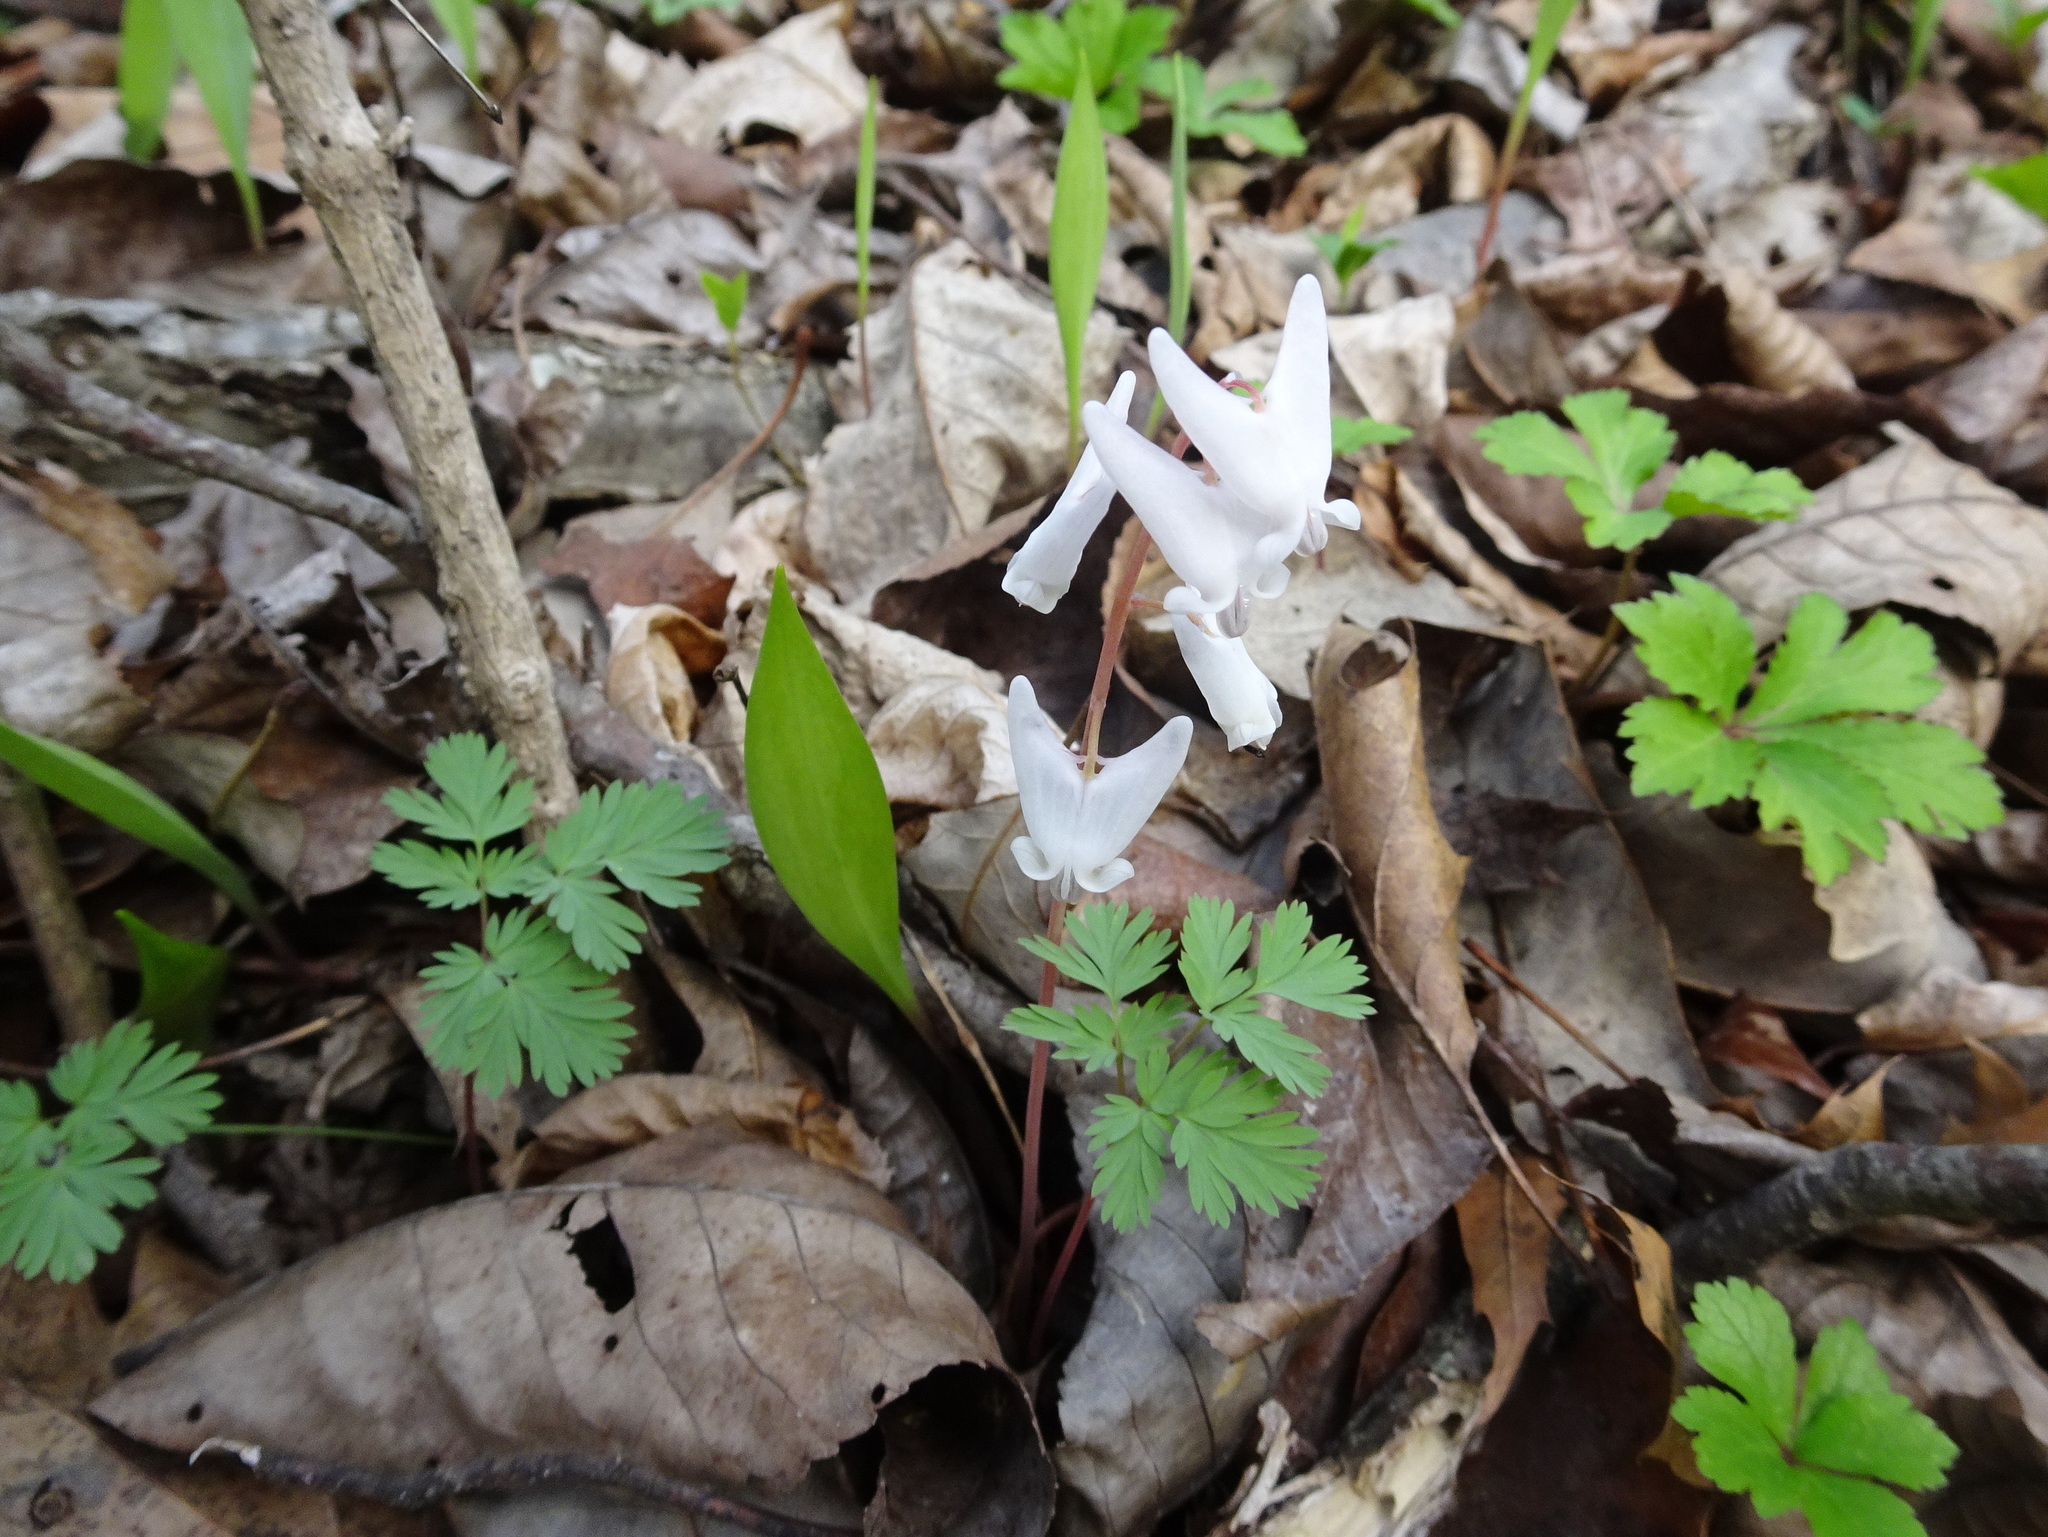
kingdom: Plantae
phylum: Tracheophyta
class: Magnoliopsida
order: Ranunculales
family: Papaveraceae
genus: Dicentra
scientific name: Dicentra cucullaria
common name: Dutchman's breeches
